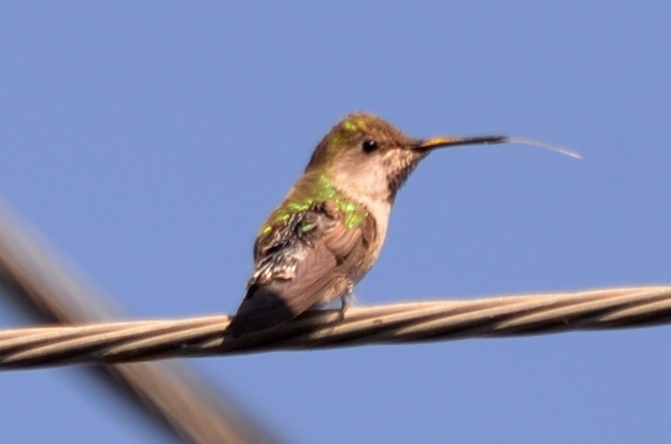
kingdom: Animalia
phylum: Chordata
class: Aves
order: Apodiformes
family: Trochilidae
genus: Calypte
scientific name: Calypte anna
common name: Anna's hummingbird
